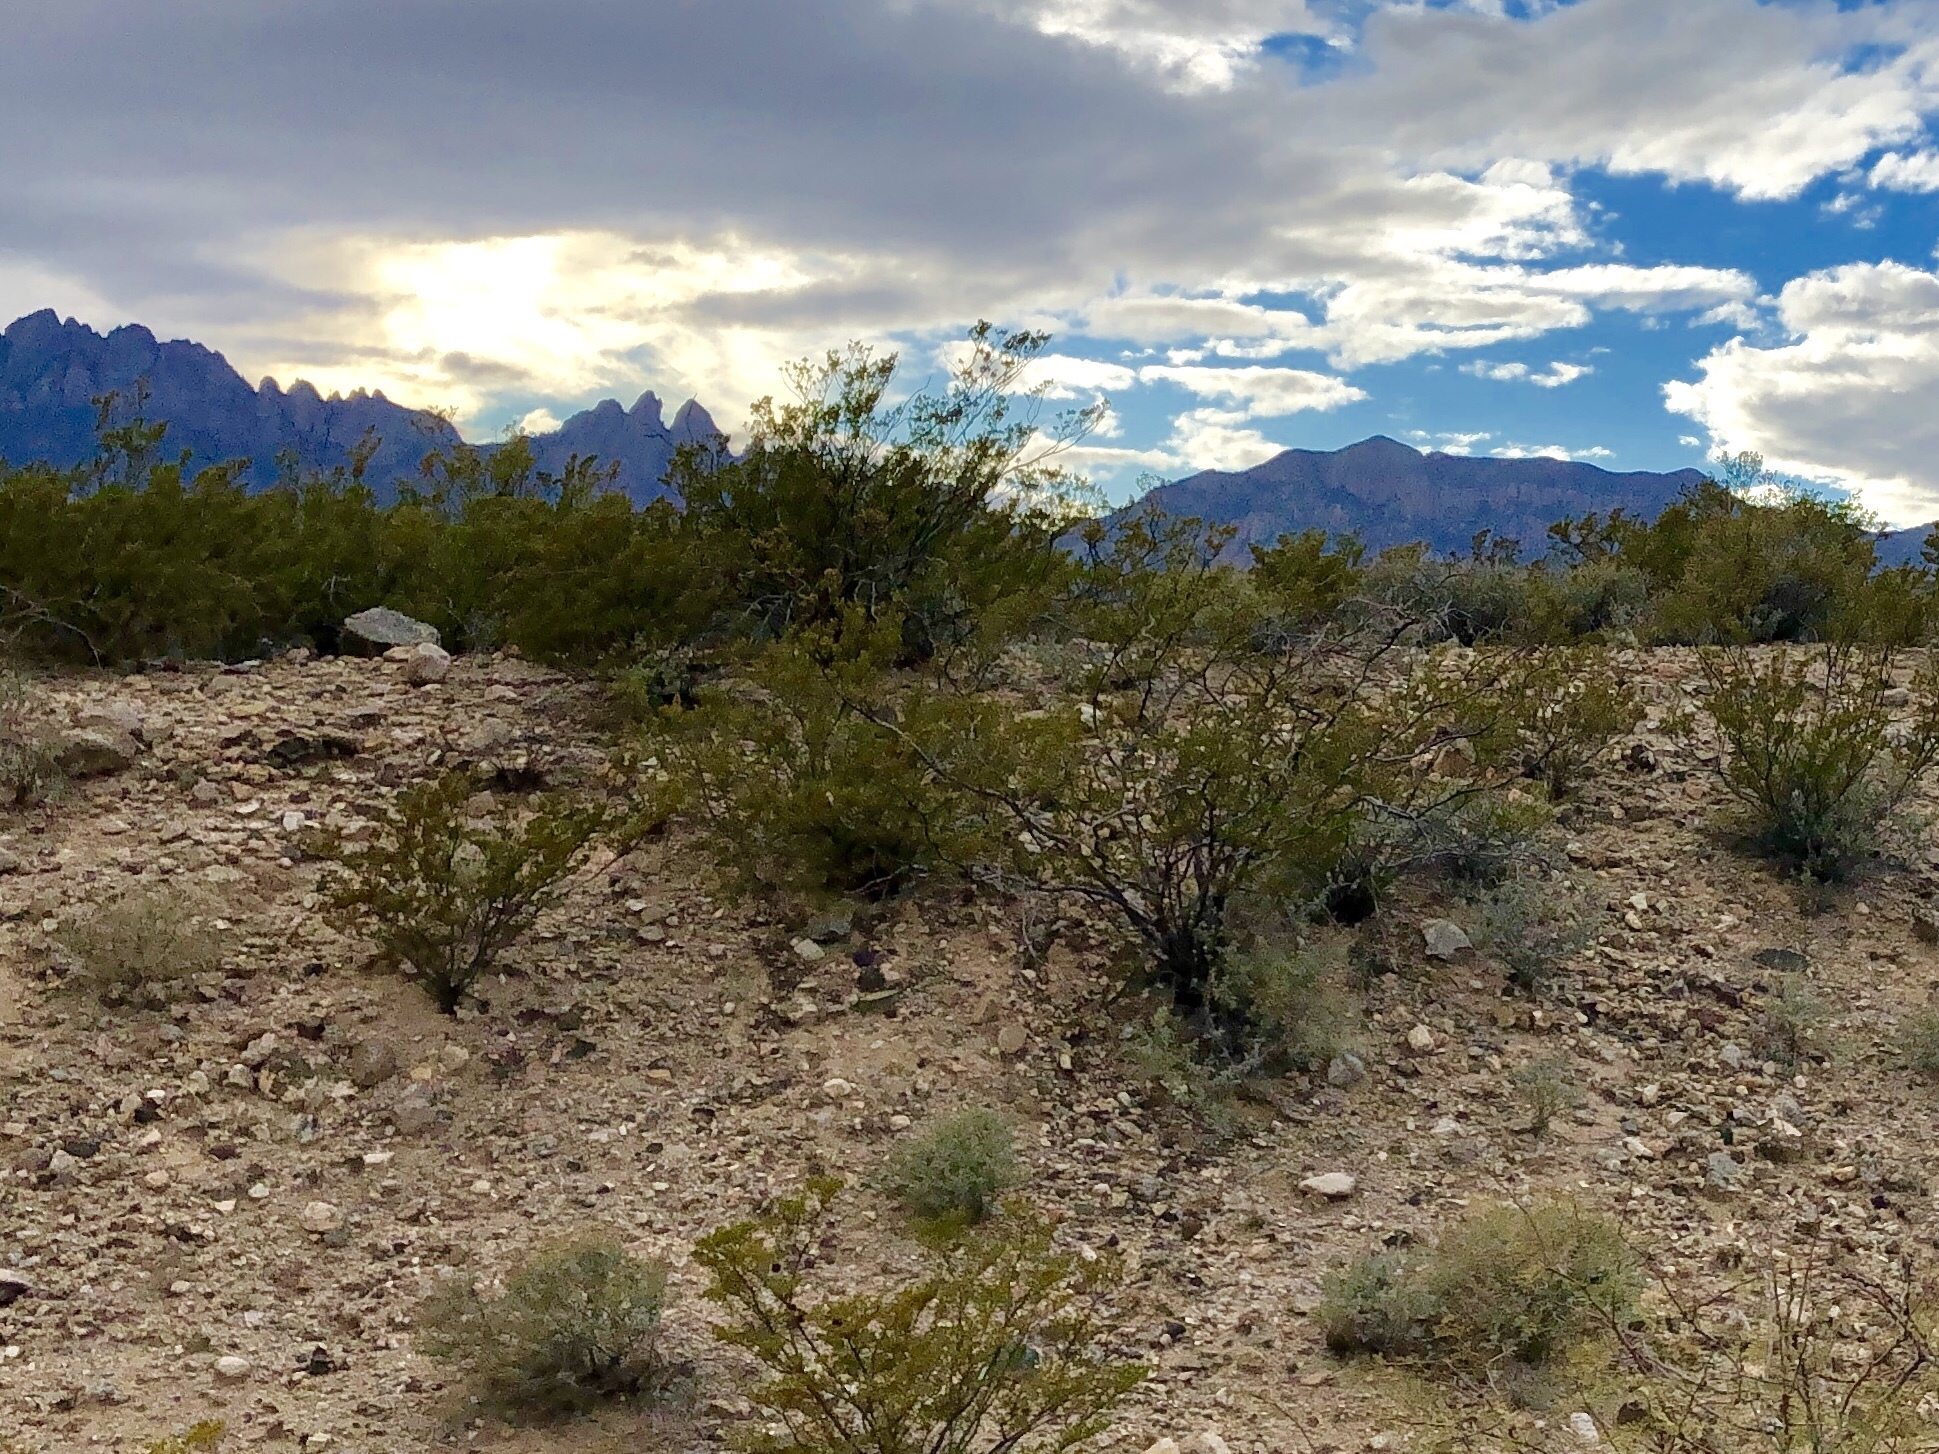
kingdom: Plantae
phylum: Tracheophyta
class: Magnoliopsida
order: Zygophyllales
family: Zygophyllaceae
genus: Larrea
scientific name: Larrea tridentata
